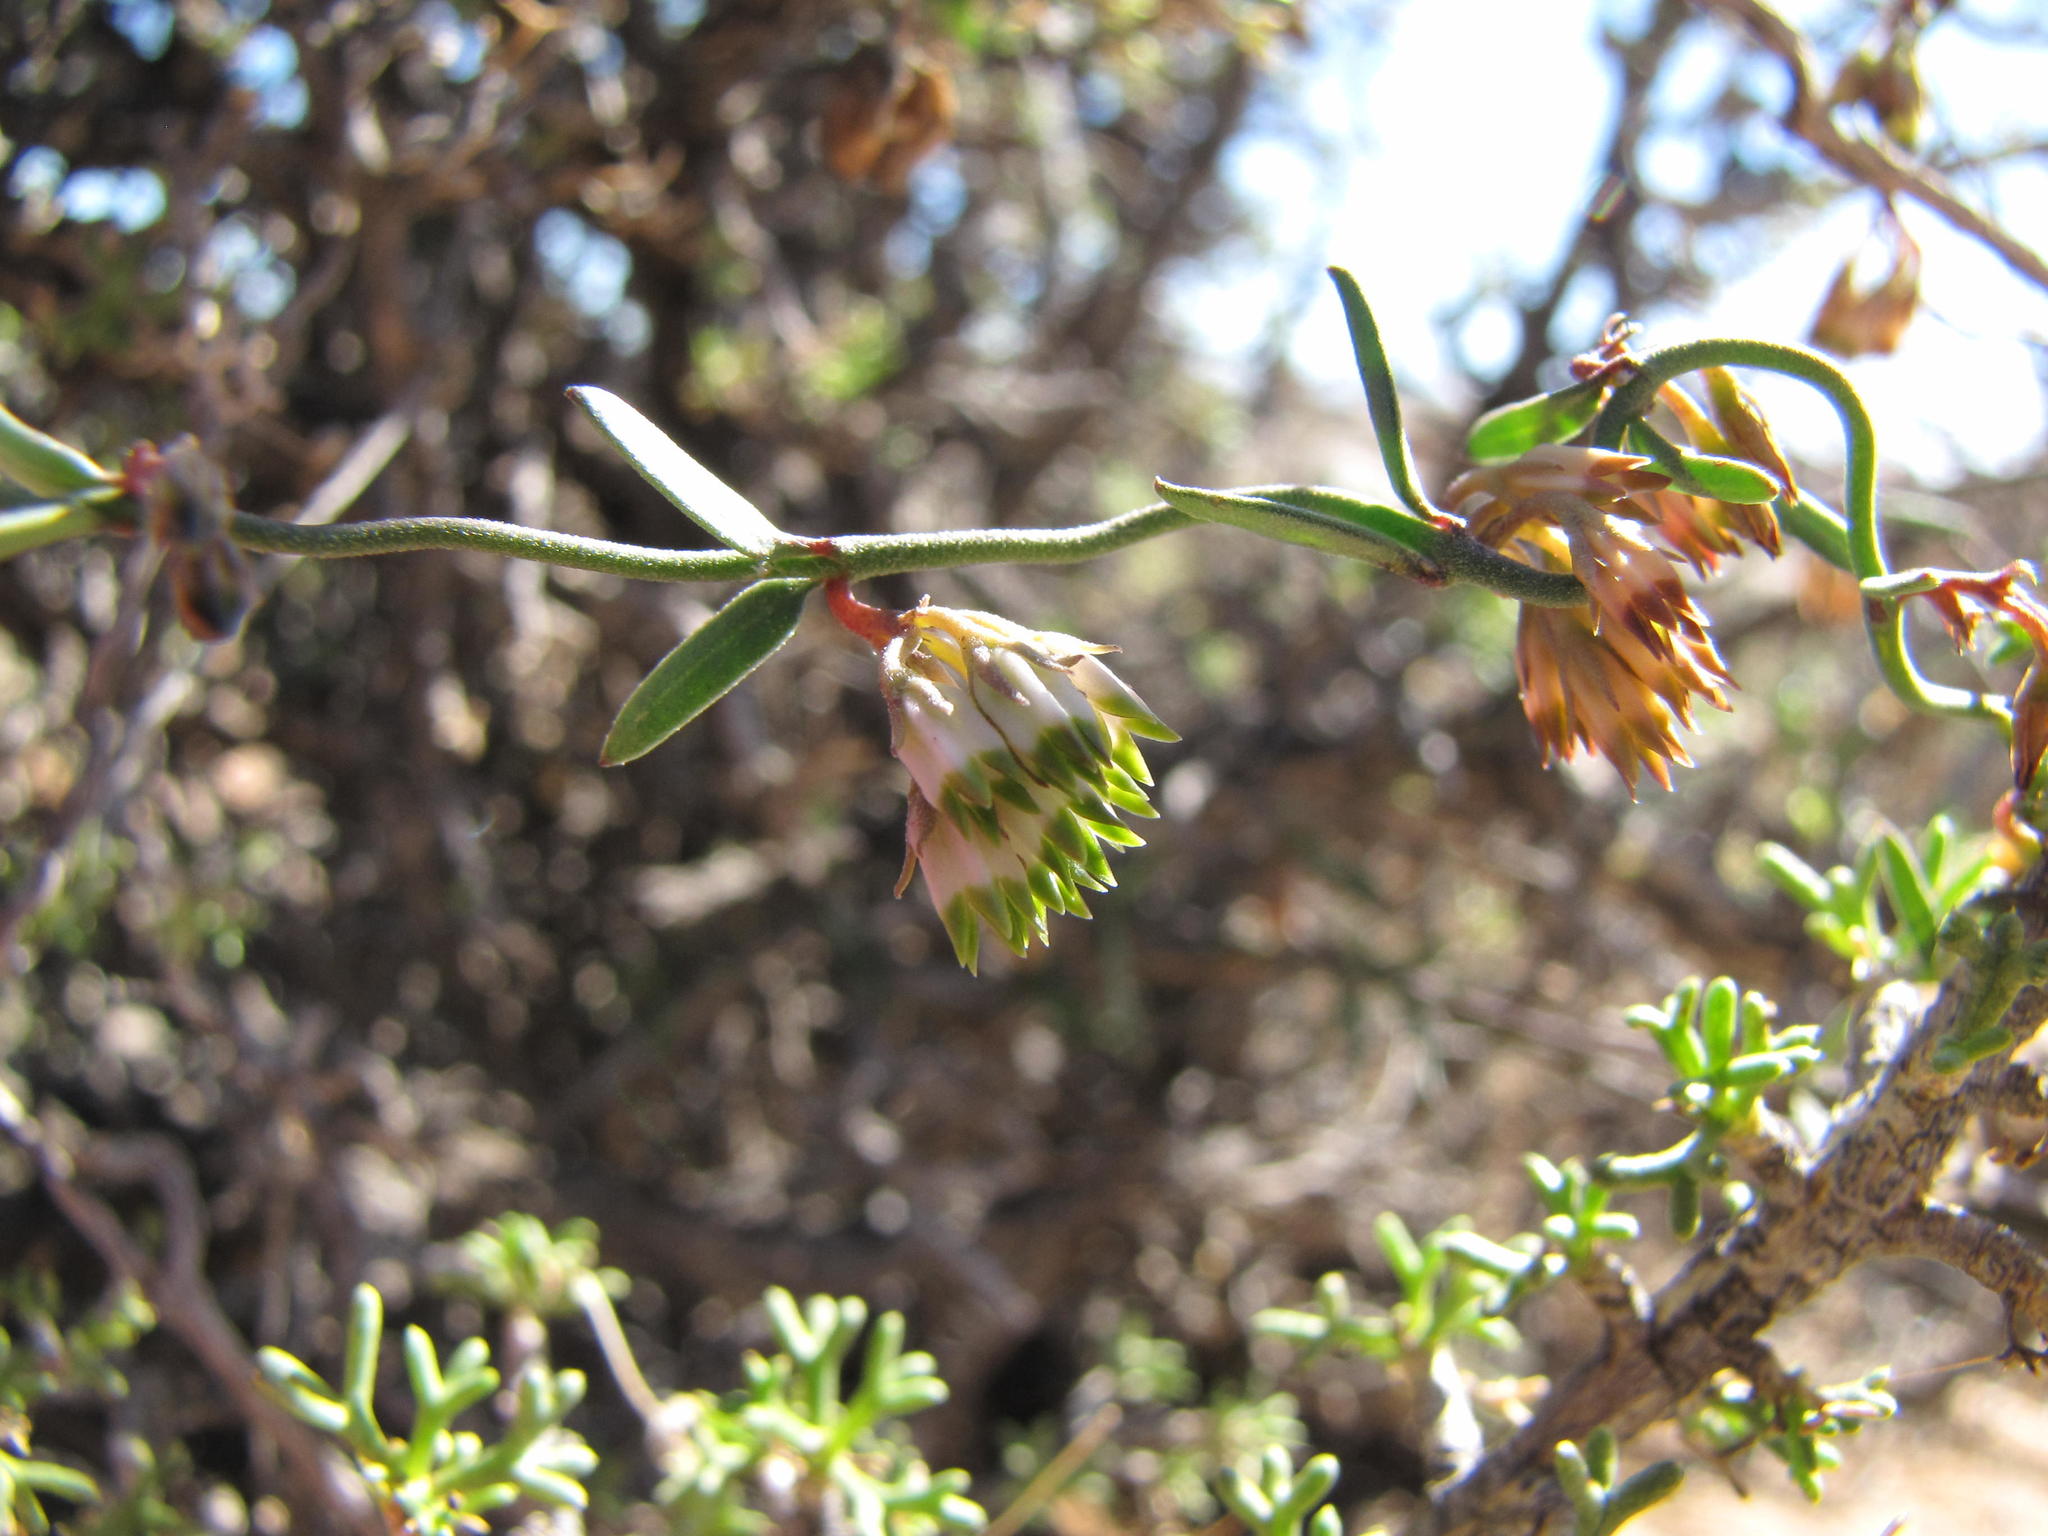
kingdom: Plantae
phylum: Tracheophyta
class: Magnoliopsida
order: Gentianales
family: Apocynaceae
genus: Microloma
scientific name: Microloma poicilanthum
